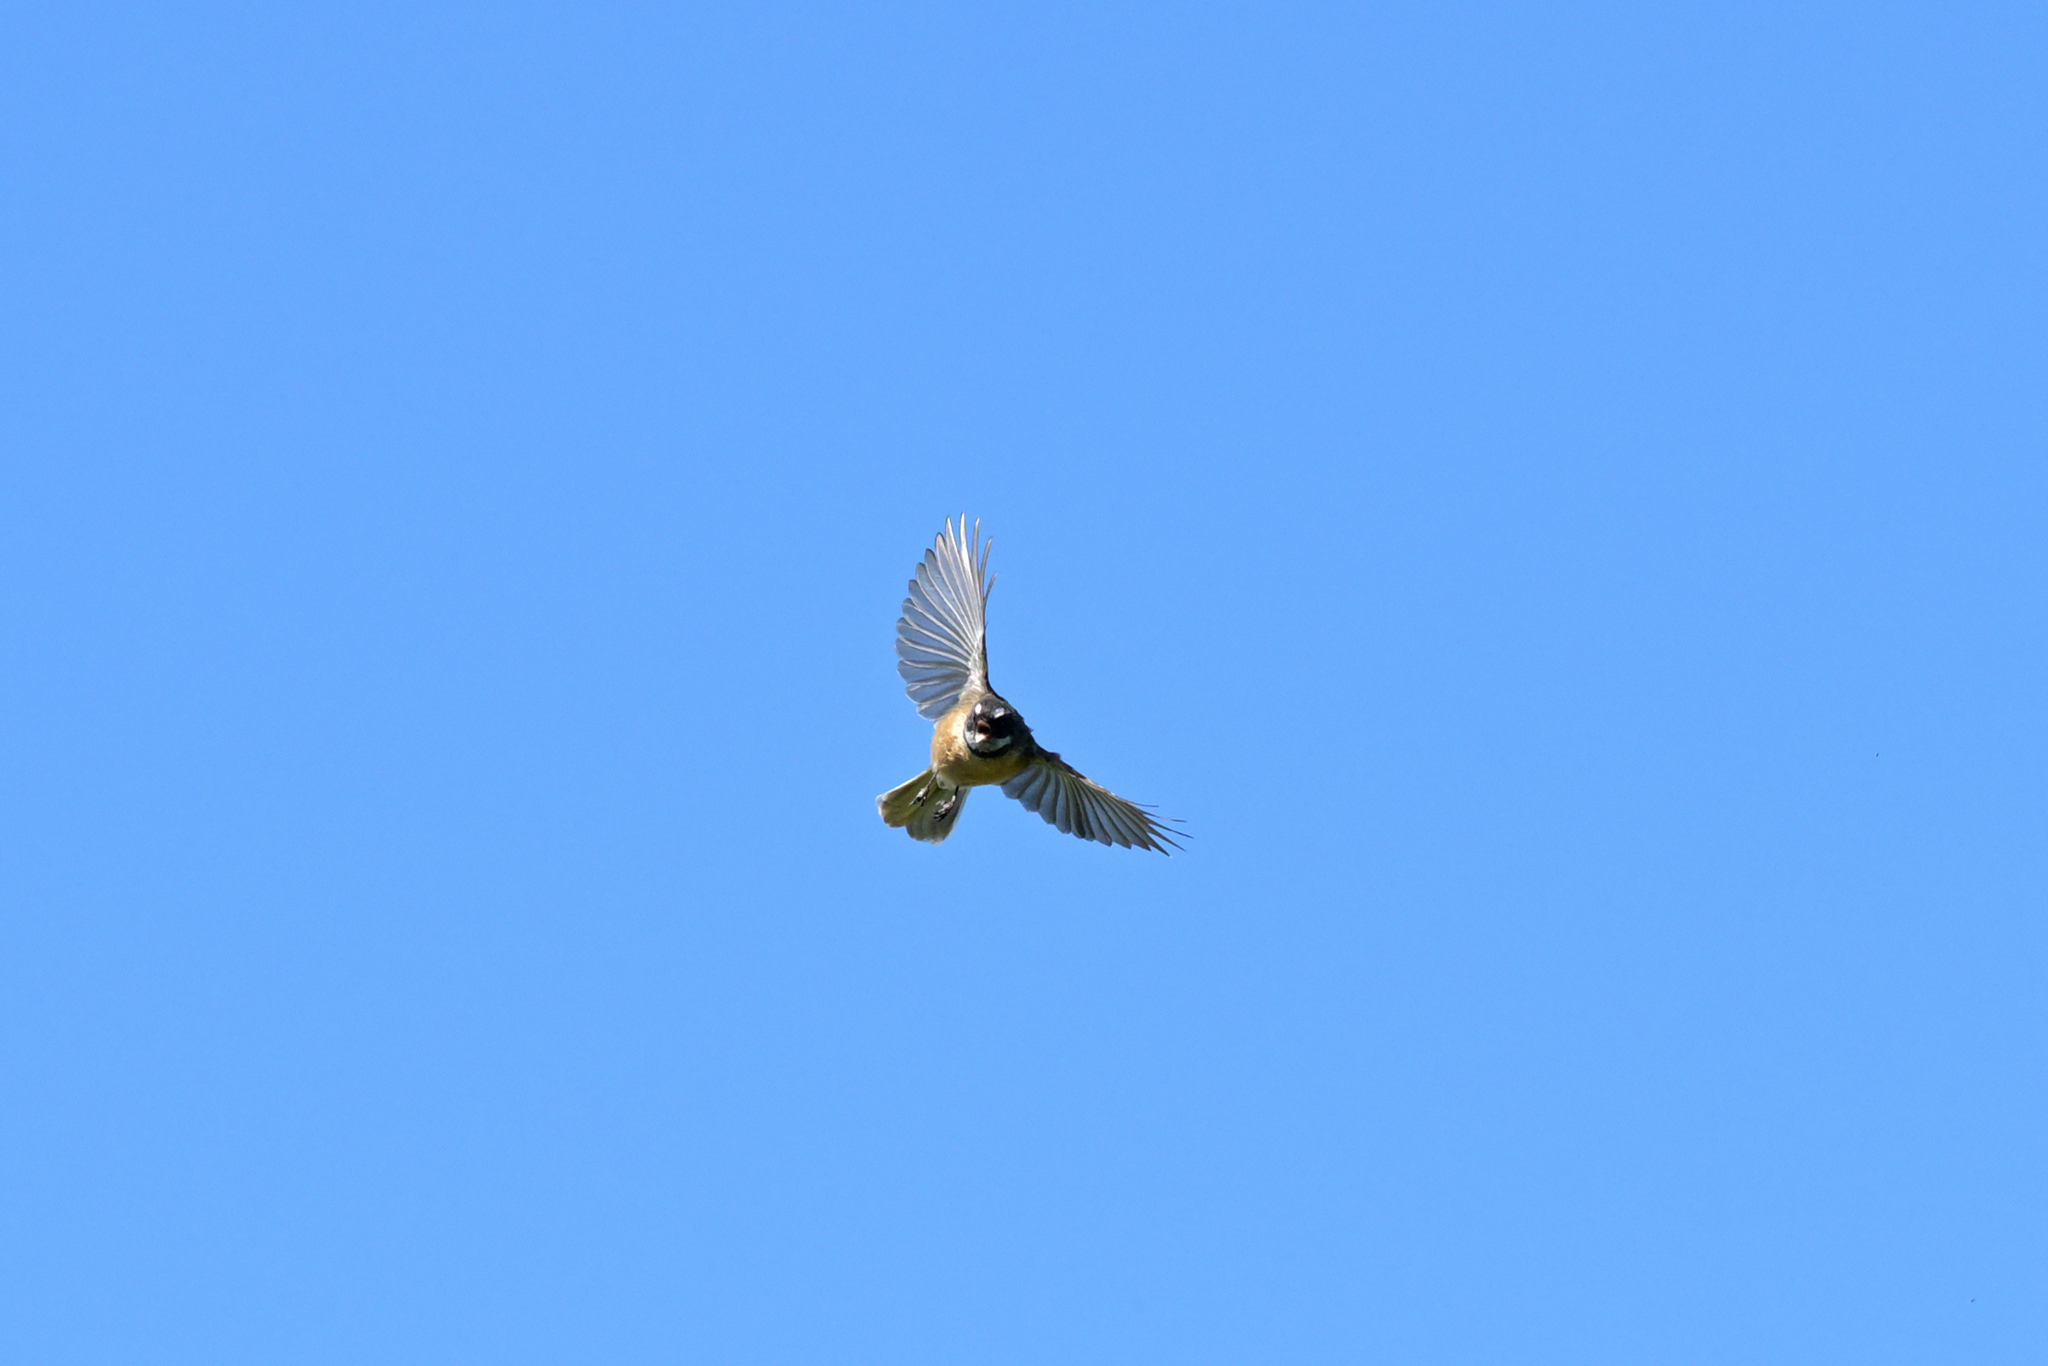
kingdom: Animalia
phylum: Chordata
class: Aves
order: Passeriformes
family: Rhipiduridae
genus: Rhipidura
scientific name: Rhipidura fuliginosa
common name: New zealand fantail
